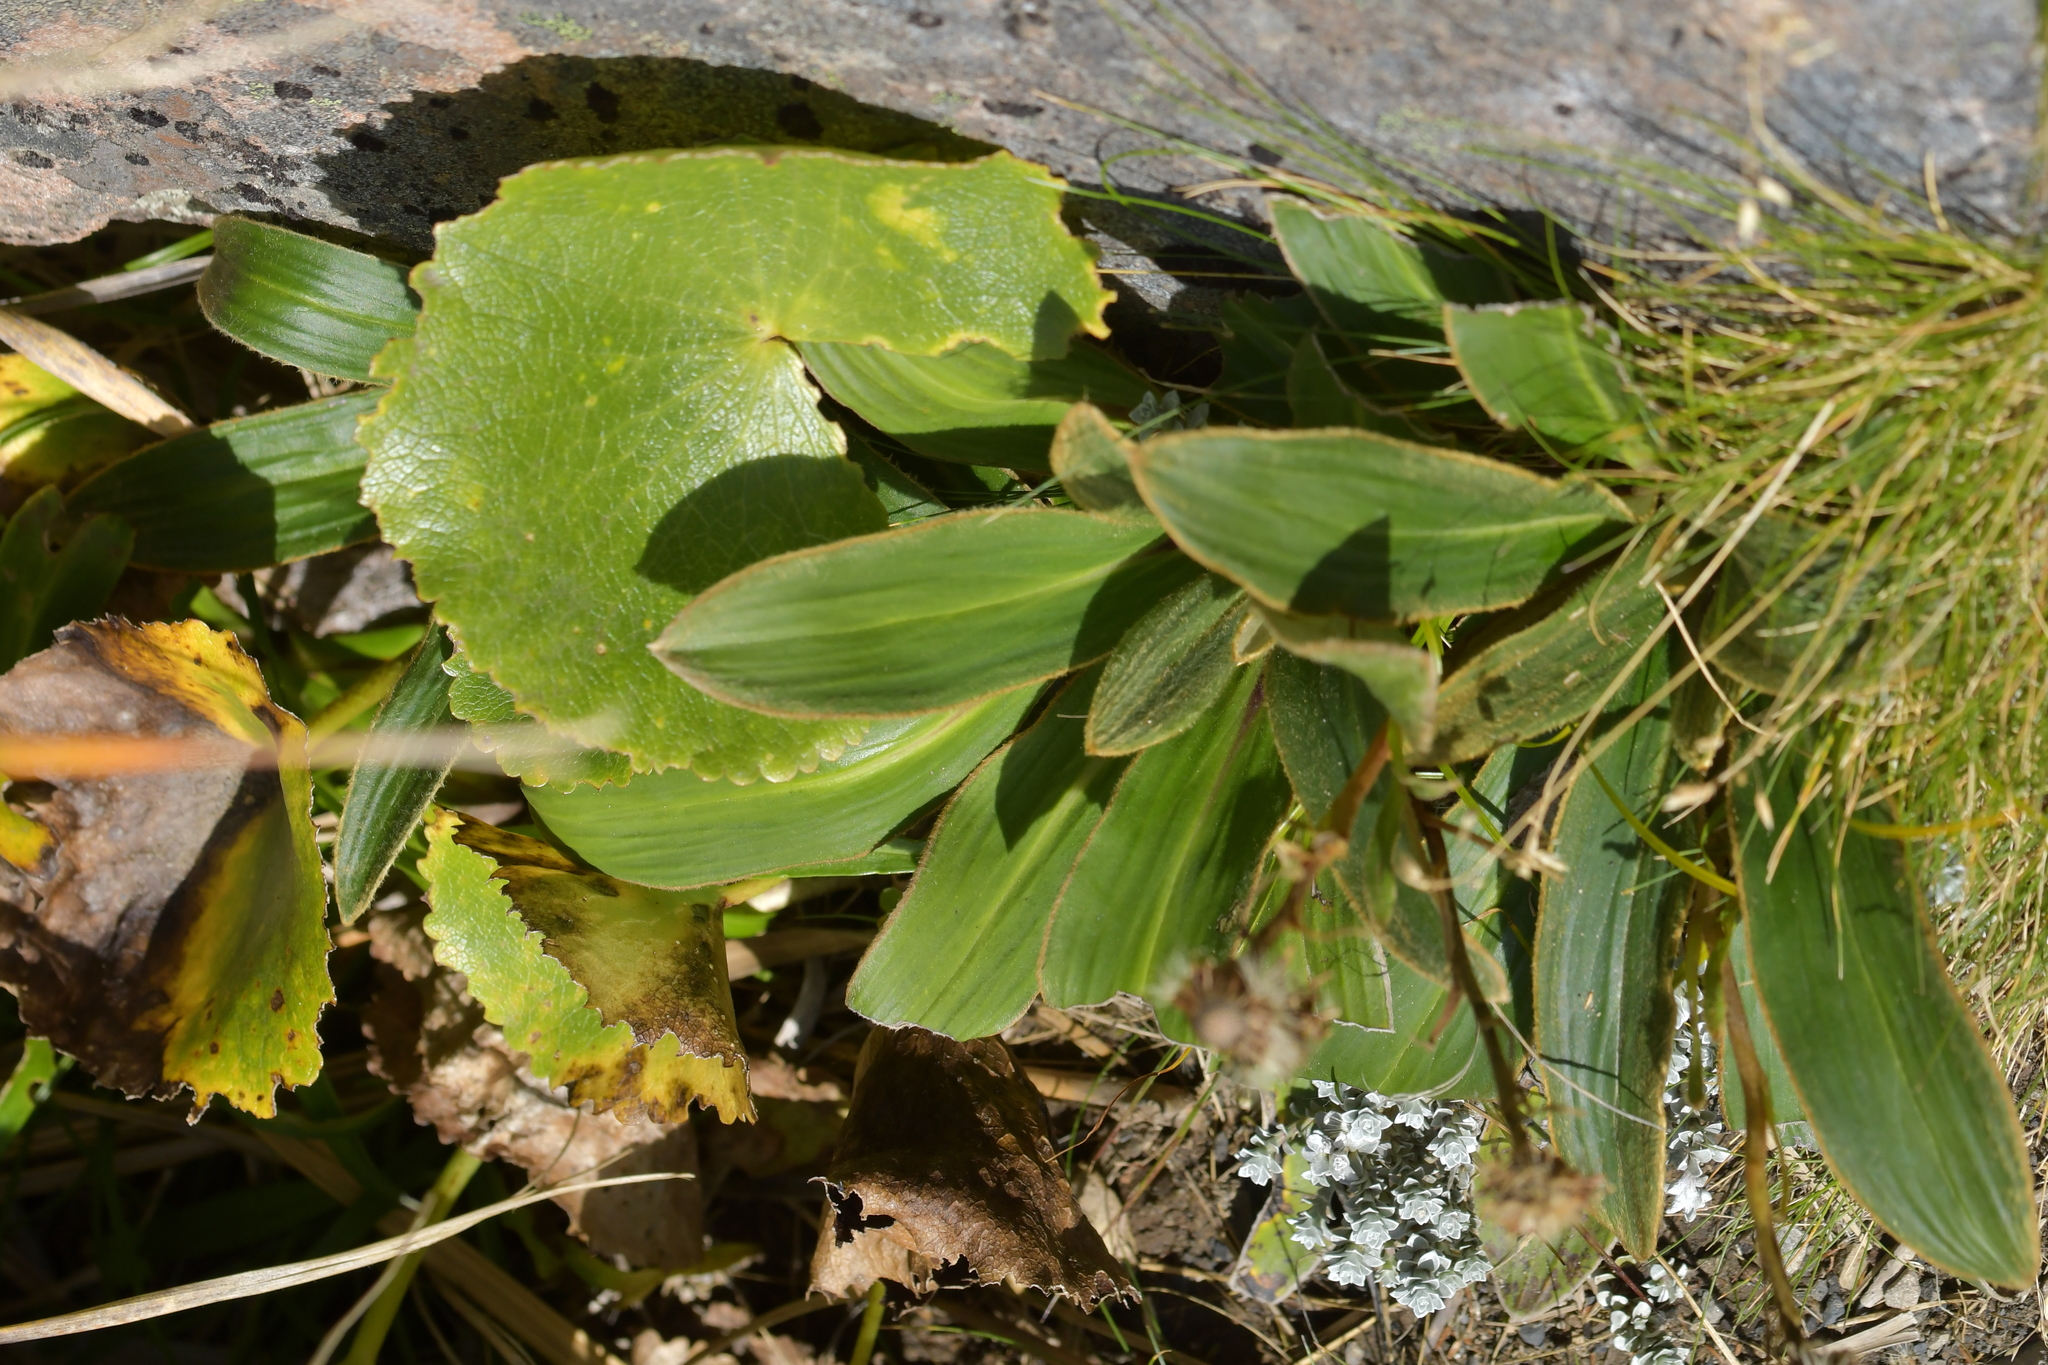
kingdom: Plantae
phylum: Tracheophyta
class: Magnoliopsida
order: Asterales
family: Asteraceae
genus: Celmisia
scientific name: Celmisia verbascifolia
